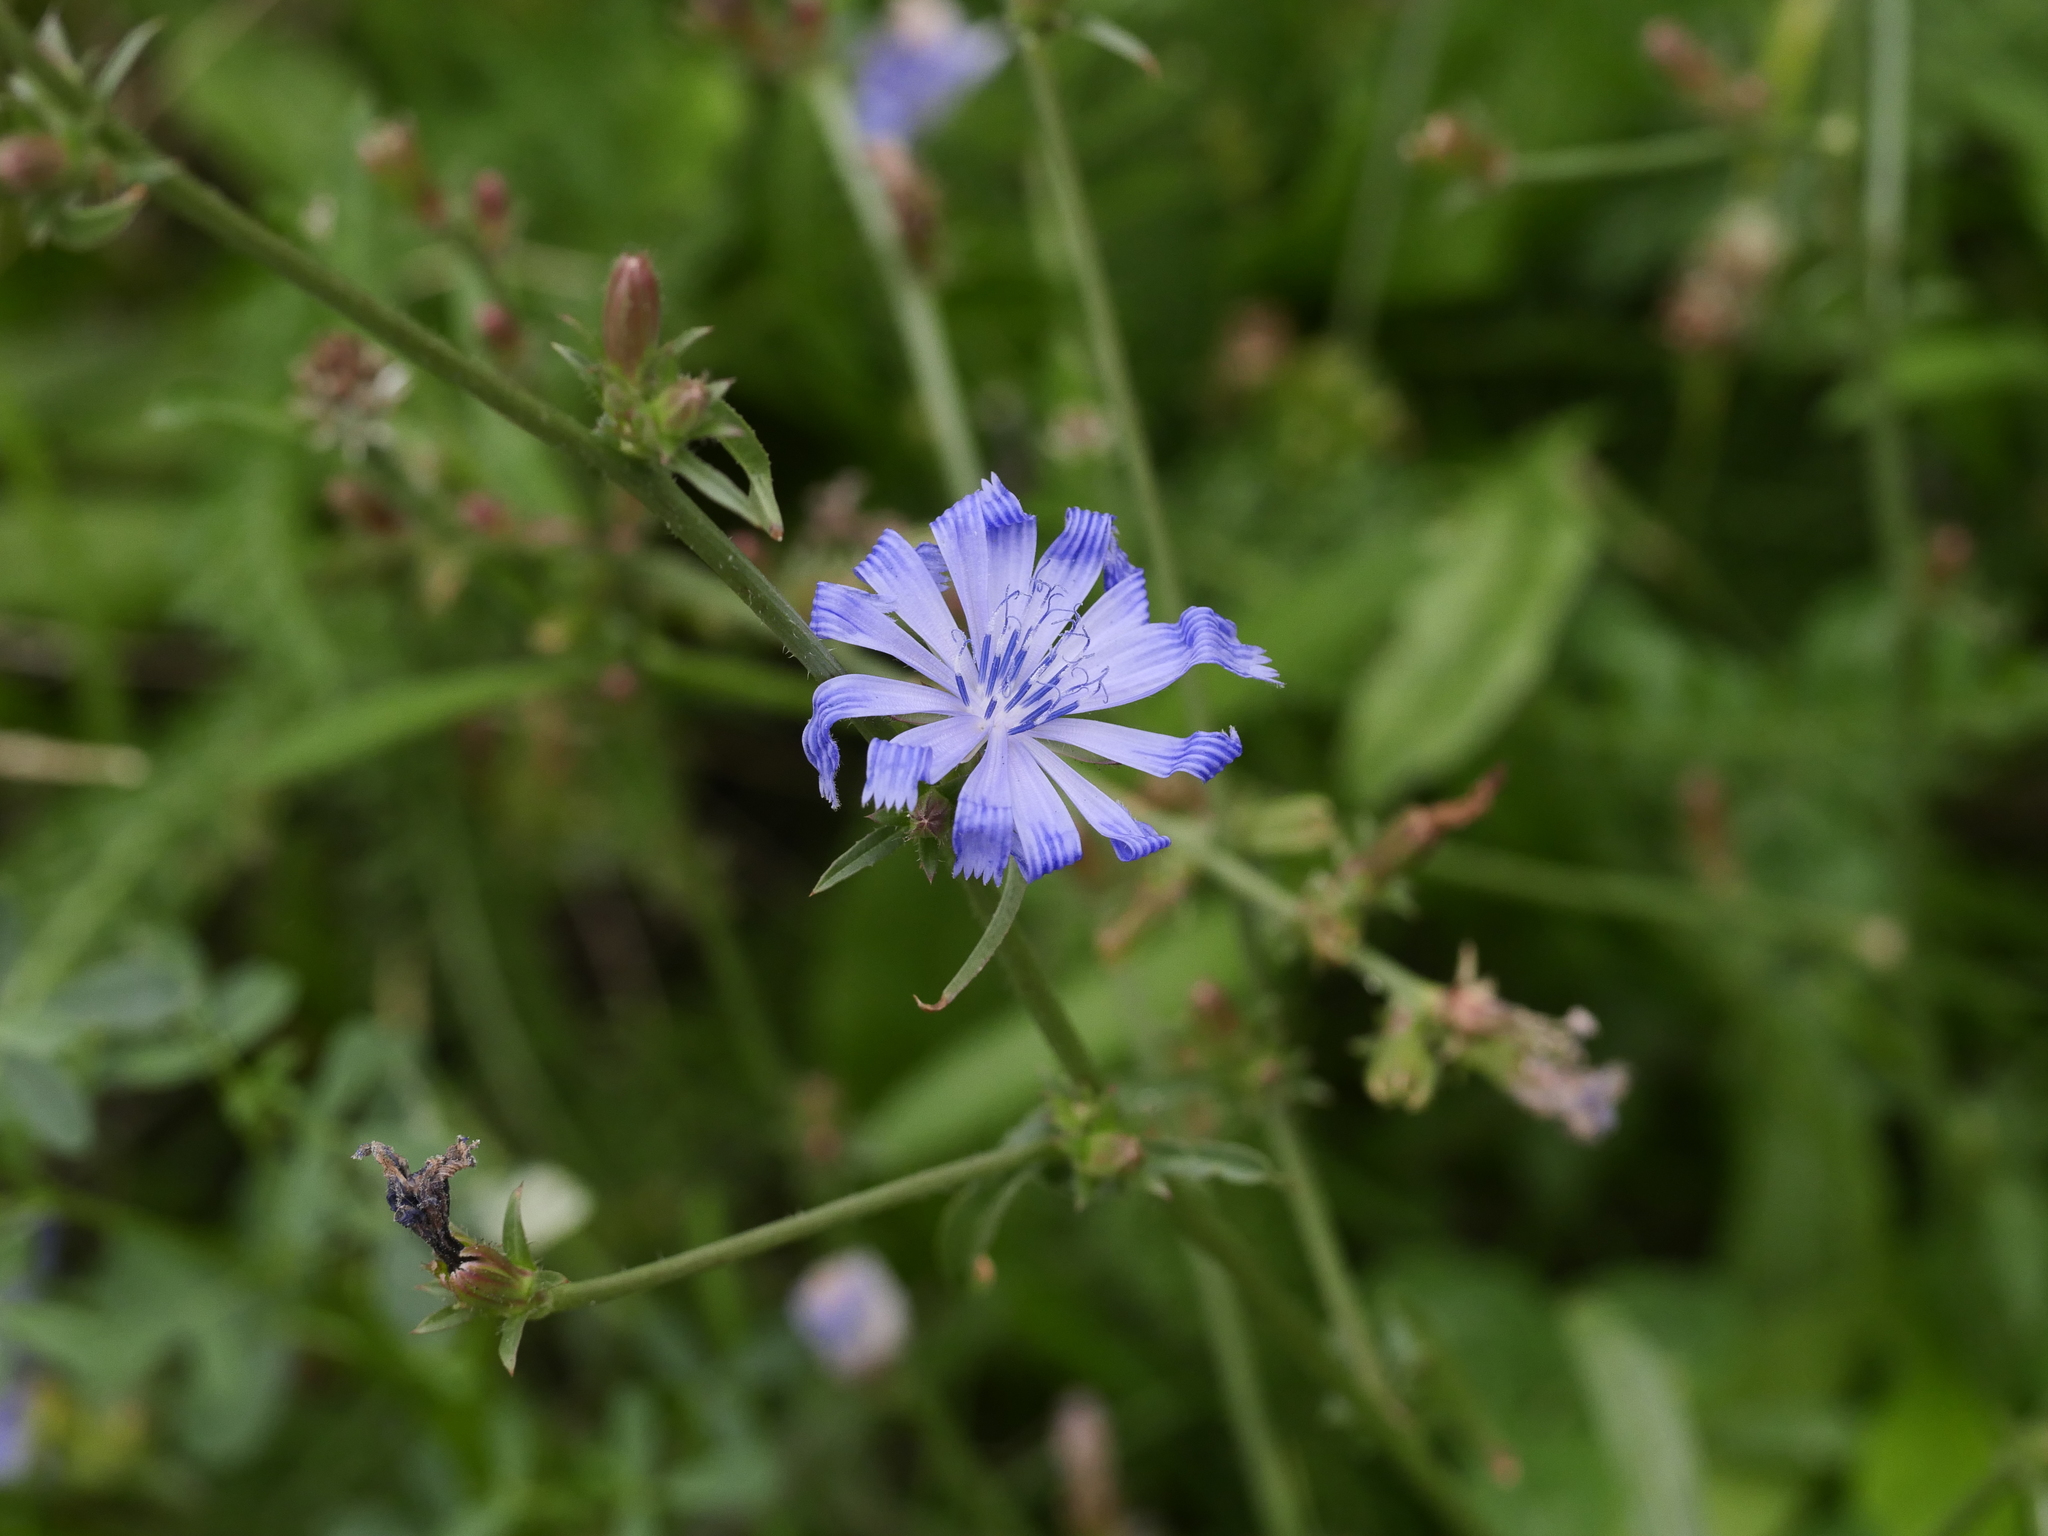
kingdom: Plantae
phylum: Tracheophyta
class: Magnoliopsida
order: Asterales
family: Asteraceae
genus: Cichorium
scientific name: Cichorium intybus
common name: Chicory
